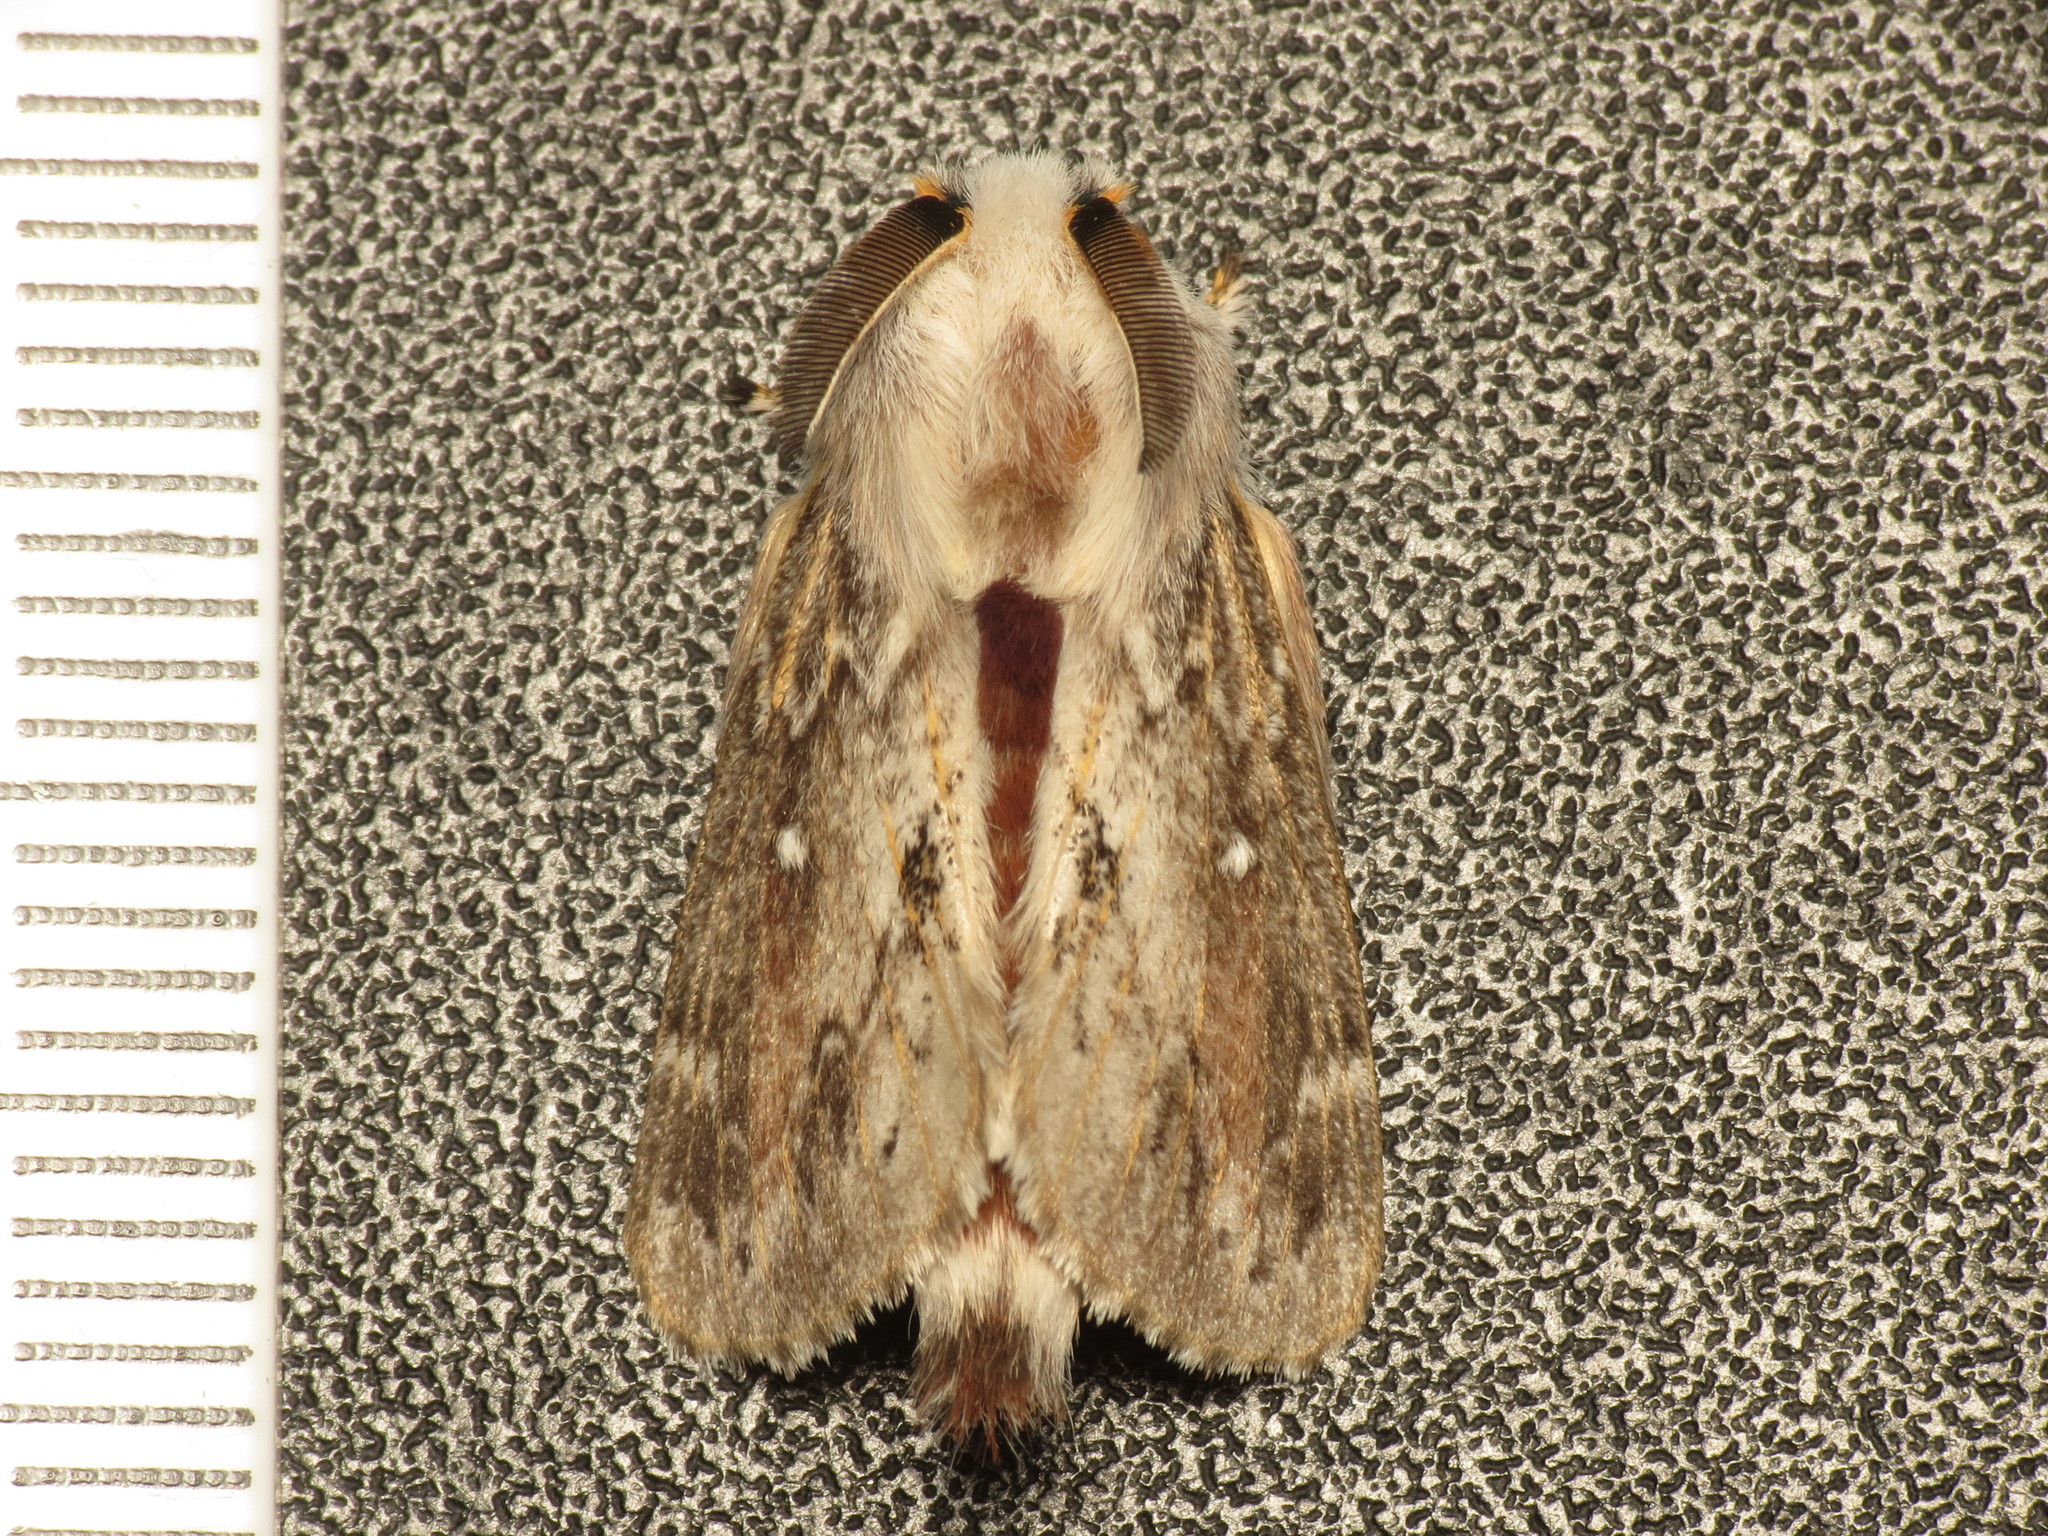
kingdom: Animalia
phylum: Arthropoda
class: Insecta
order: Lepidoptera
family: Lasiocampidae
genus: Porela
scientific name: Porela delineata
